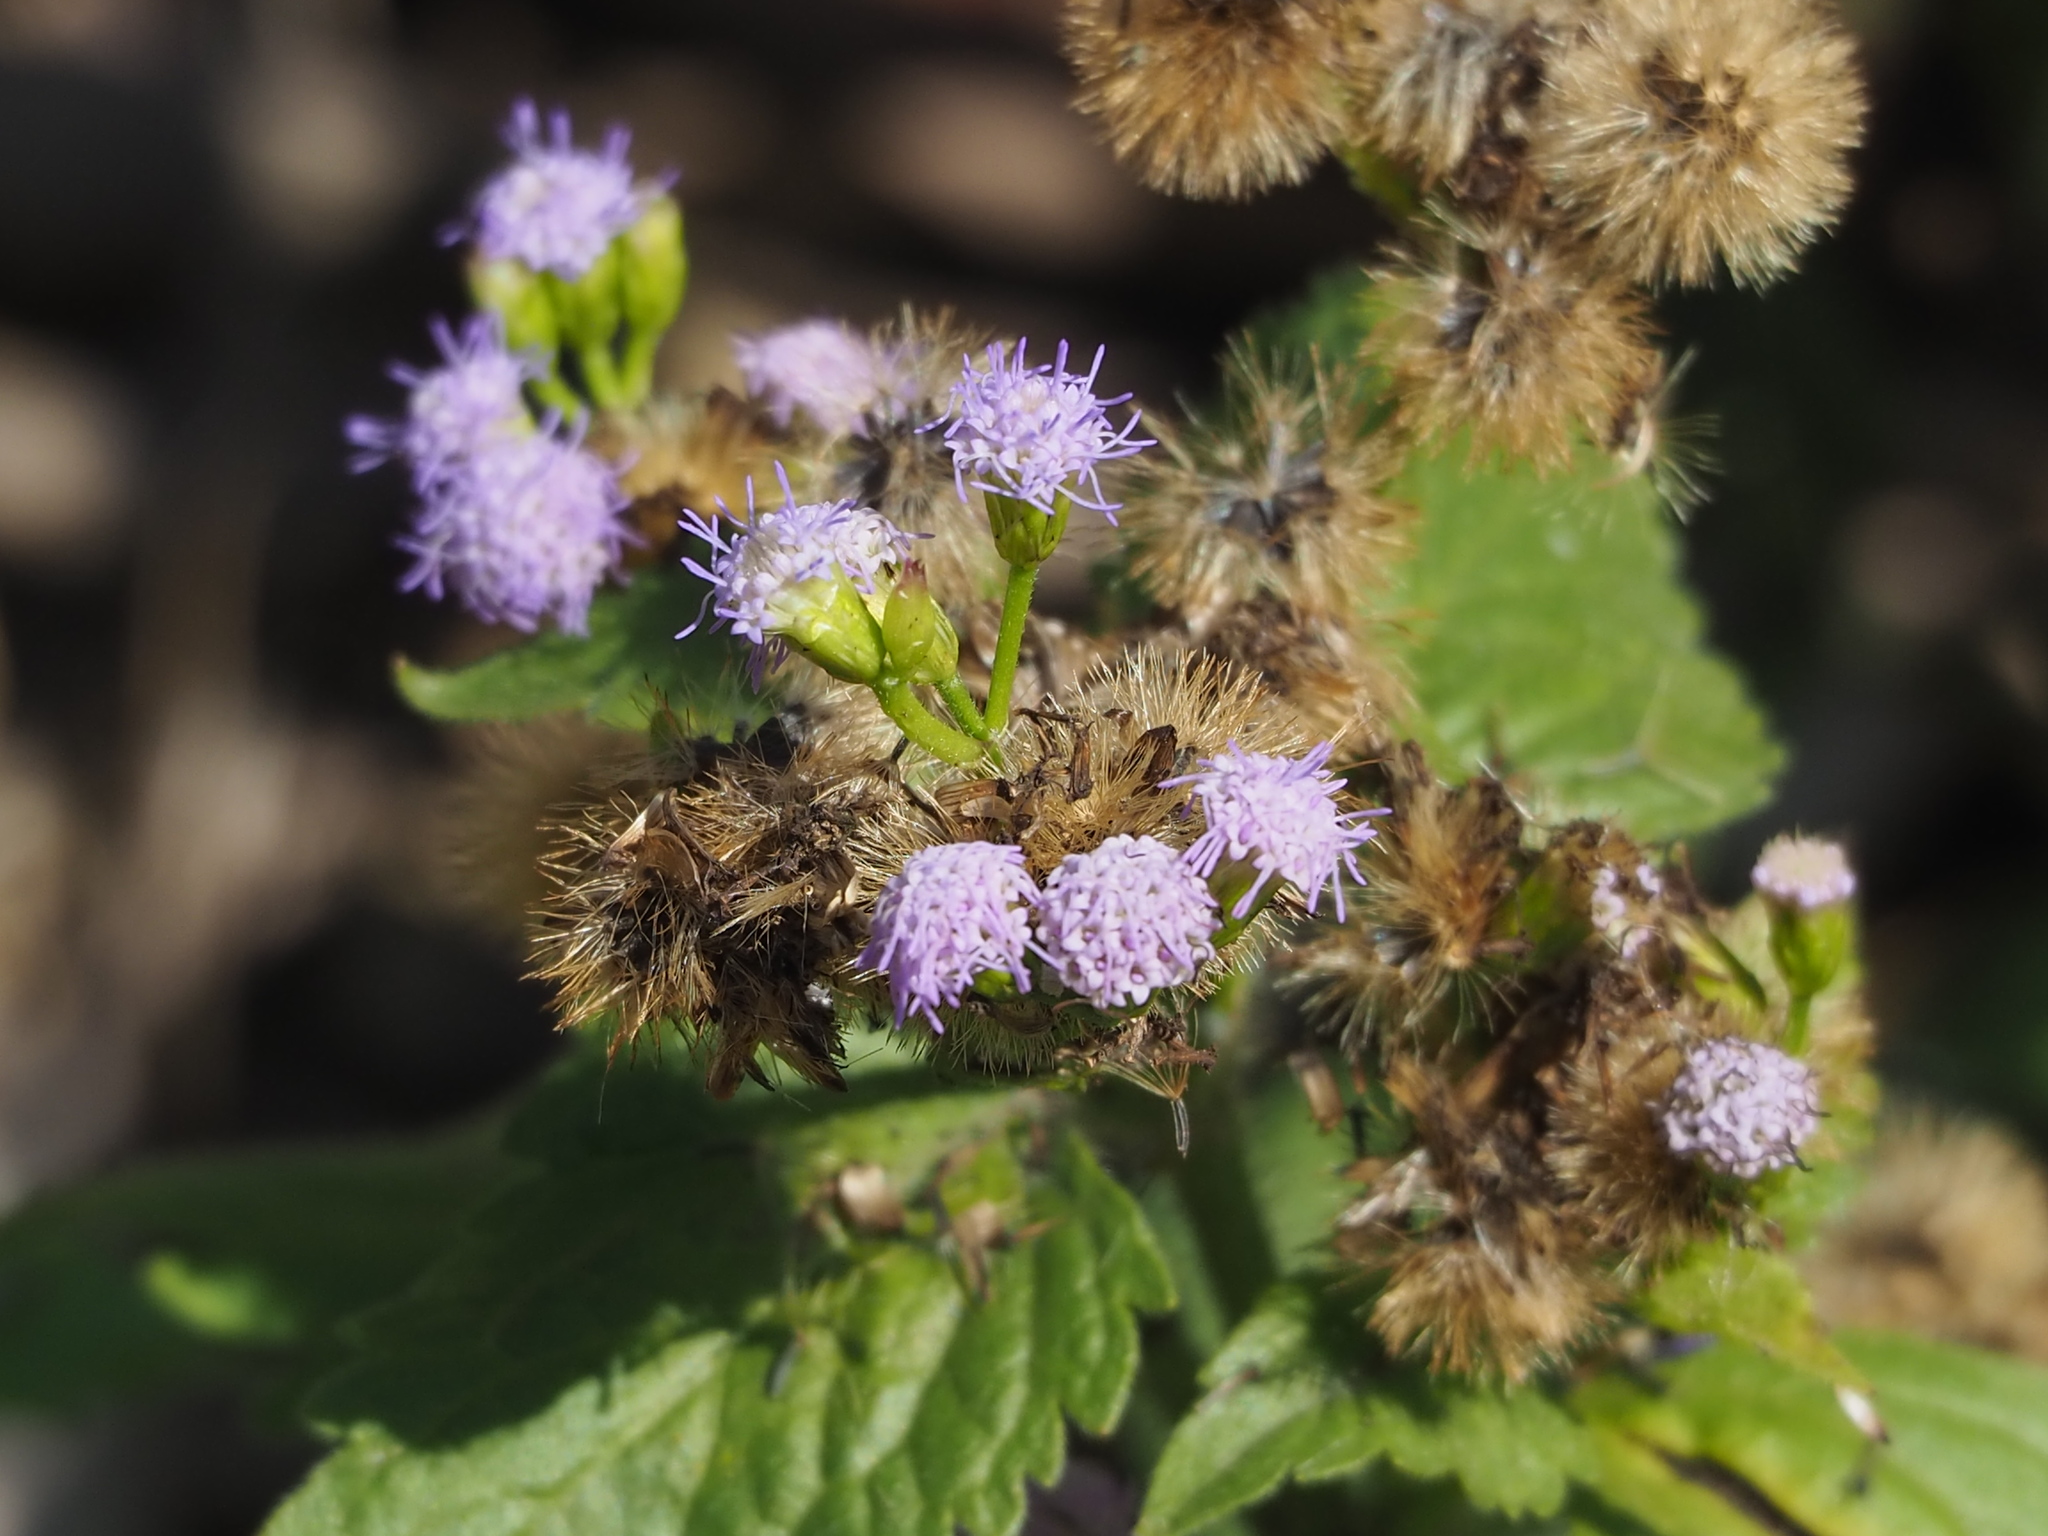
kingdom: Plantae
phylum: Tracheophyta
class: Magnoliopsida
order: Asterales
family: Asteraceae
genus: Praxelis
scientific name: Praxelis clematidea
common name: Praxelis
